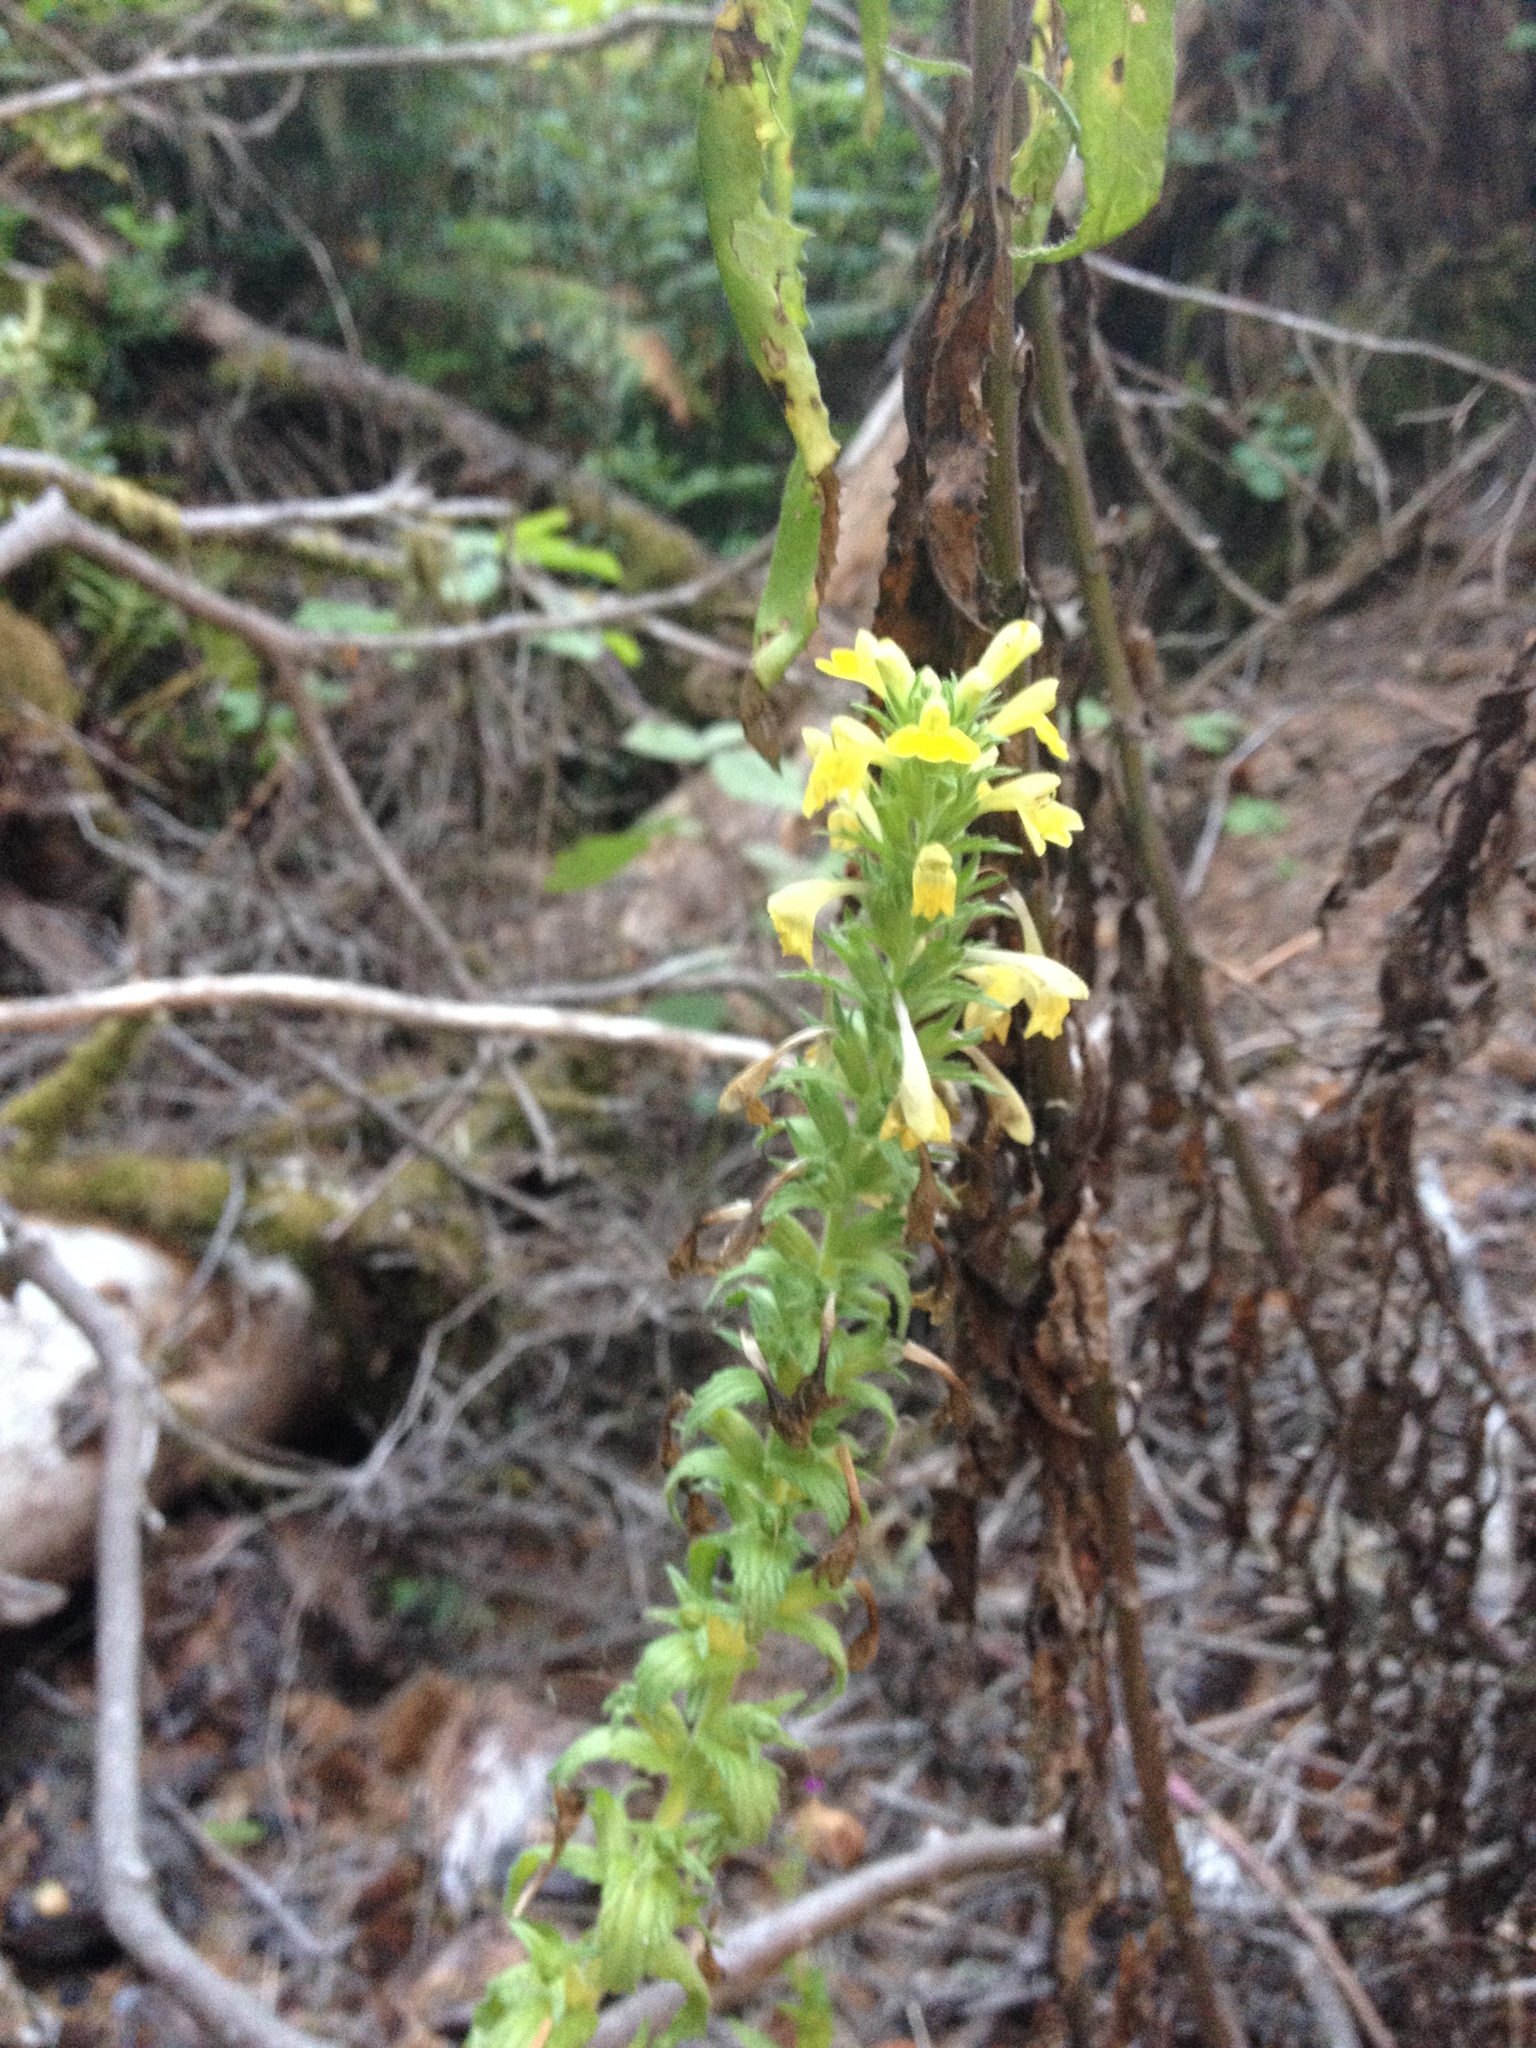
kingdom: Plantae
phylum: Tracheophyta
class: Magnoliopsida
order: Lamiales
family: Orobanchaceae
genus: Bellardia
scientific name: Bellardia viscosa
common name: Sticky parentucellia
